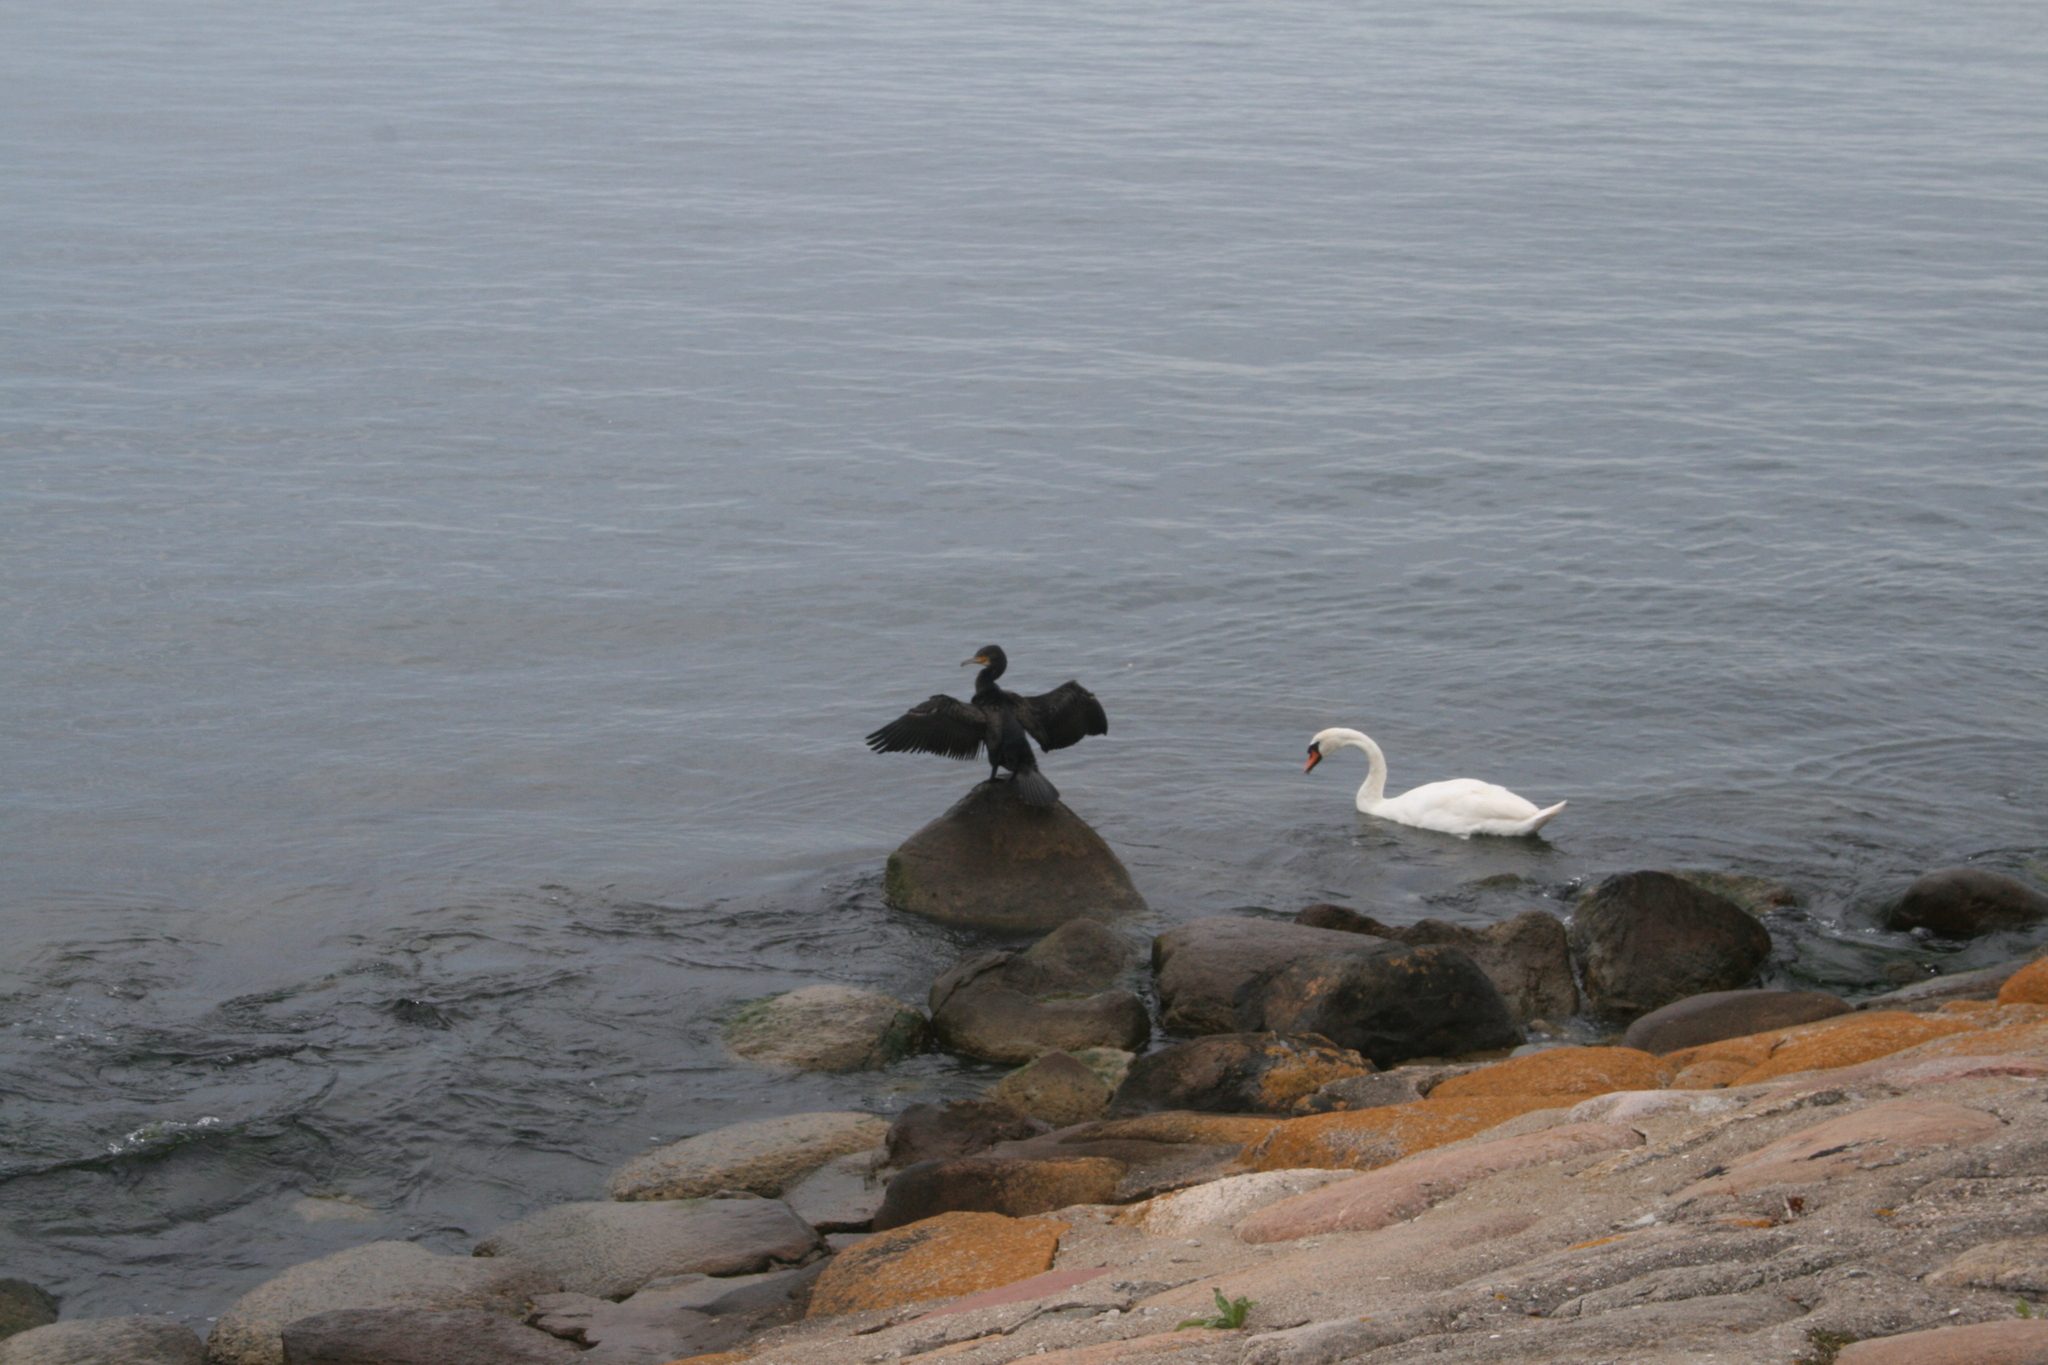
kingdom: Animalia
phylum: Chordata
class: Aves
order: Suliformes
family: Phalacrocoracidae
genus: Phalacrocorax
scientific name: Phalacrocorax carbo
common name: Great cormorant
